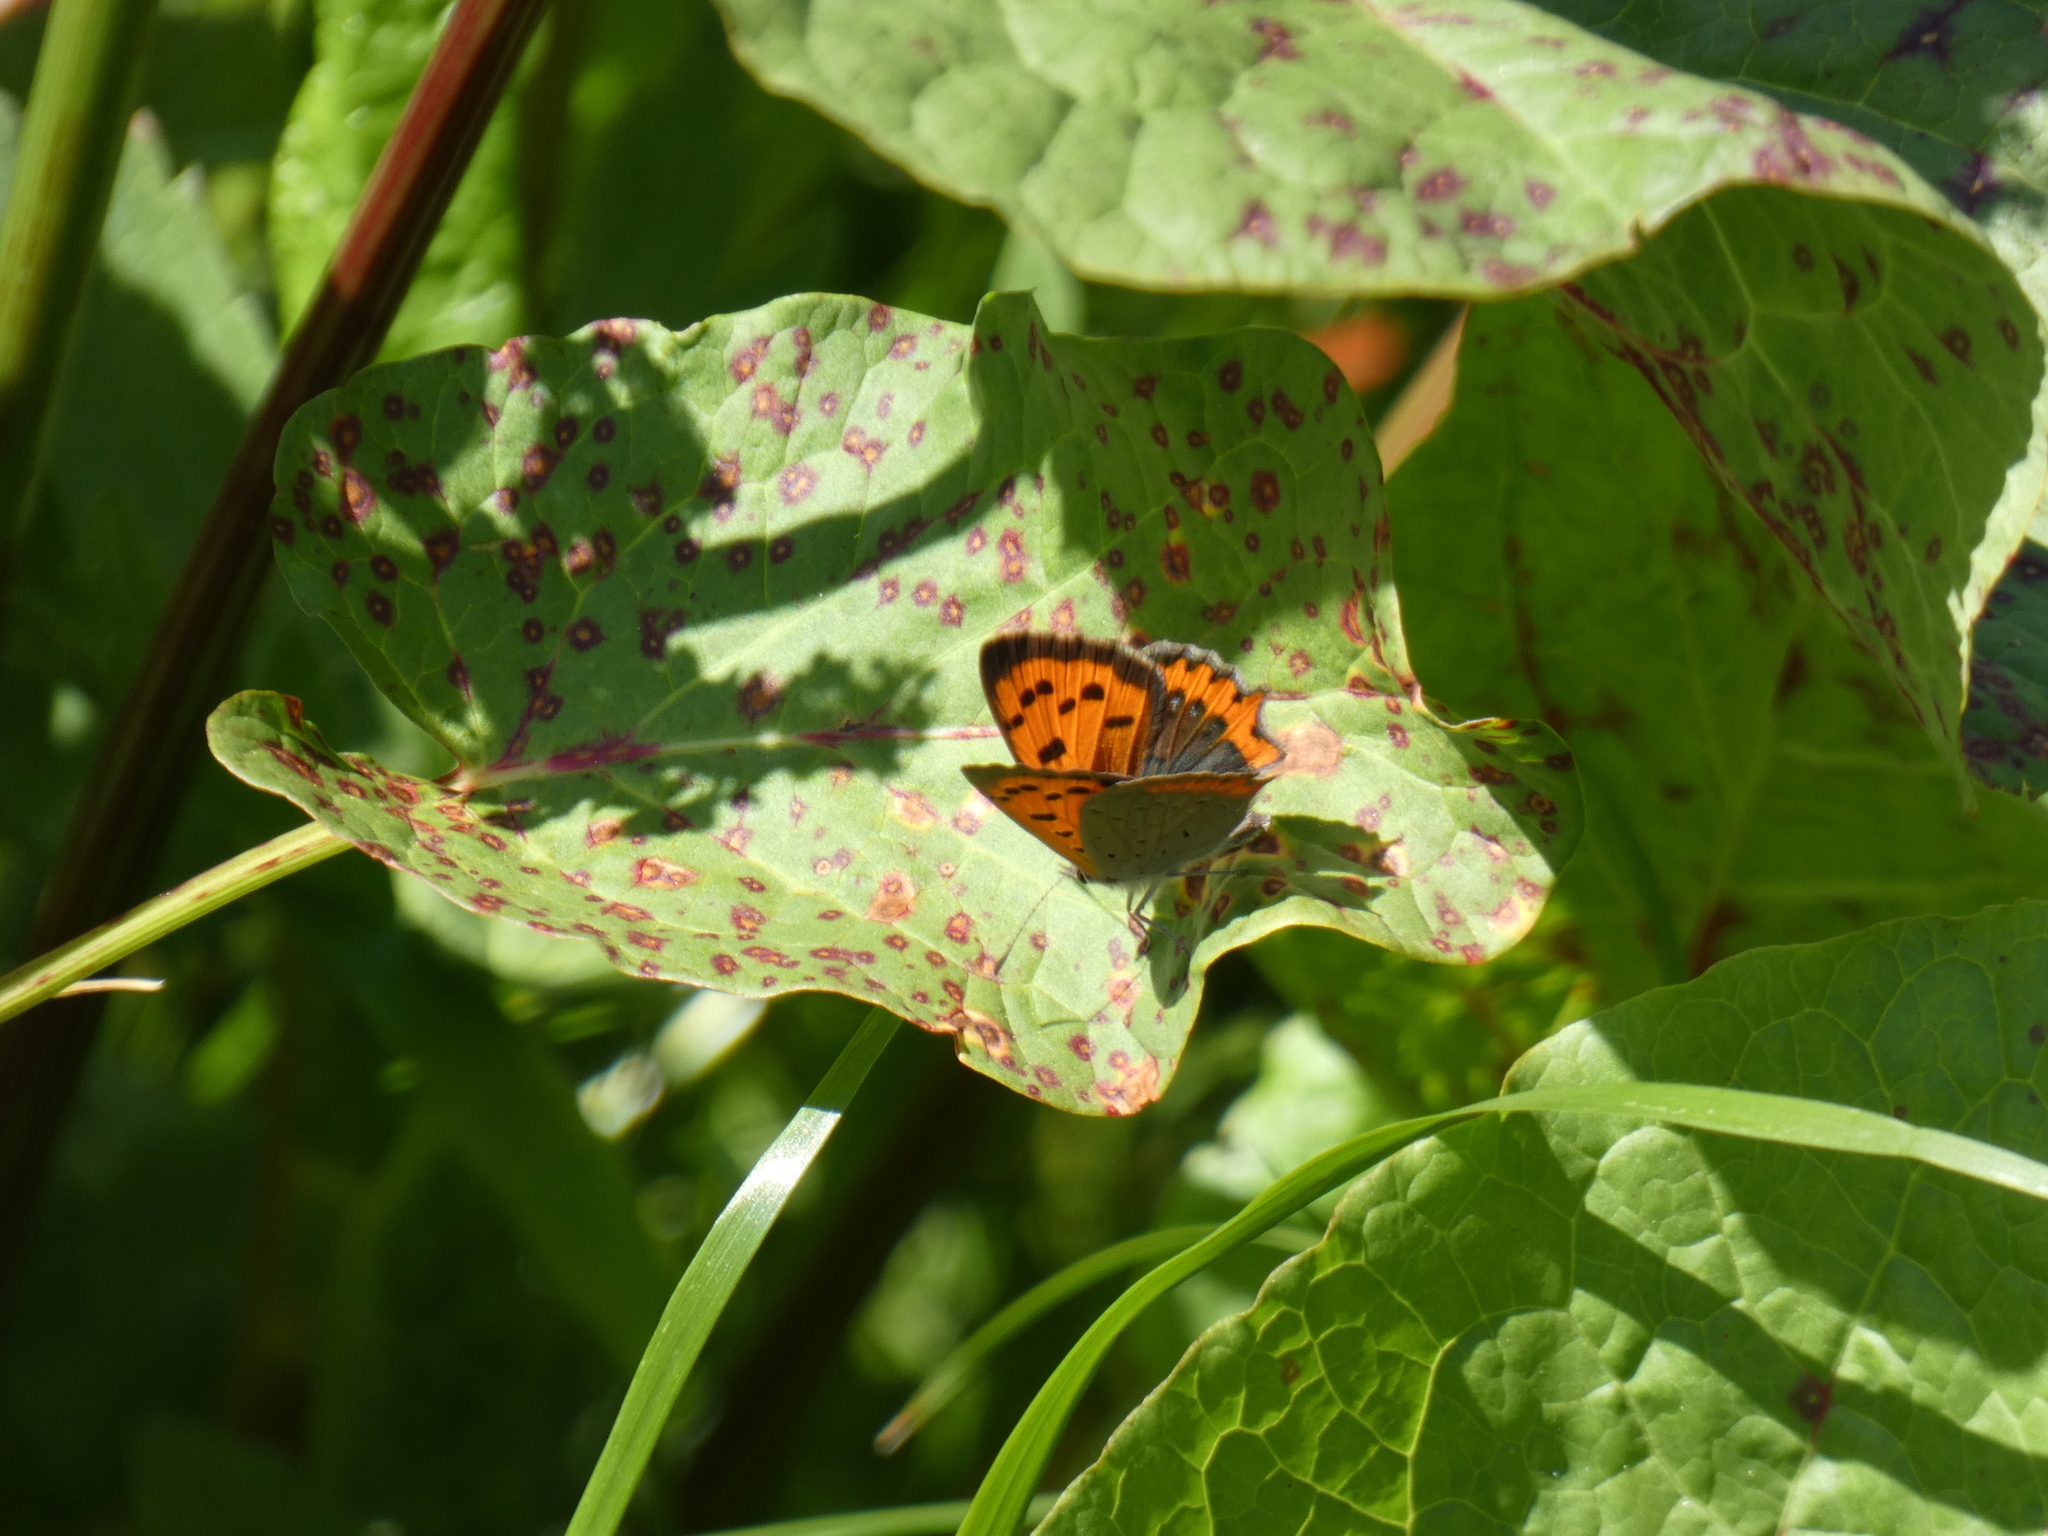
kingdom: Animalia
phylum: Arthropoda
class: Insecta
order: Lepidoptera
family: Lycaenidae
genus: Lycaena
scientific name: Lycaena phlaeas
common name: Small copper
